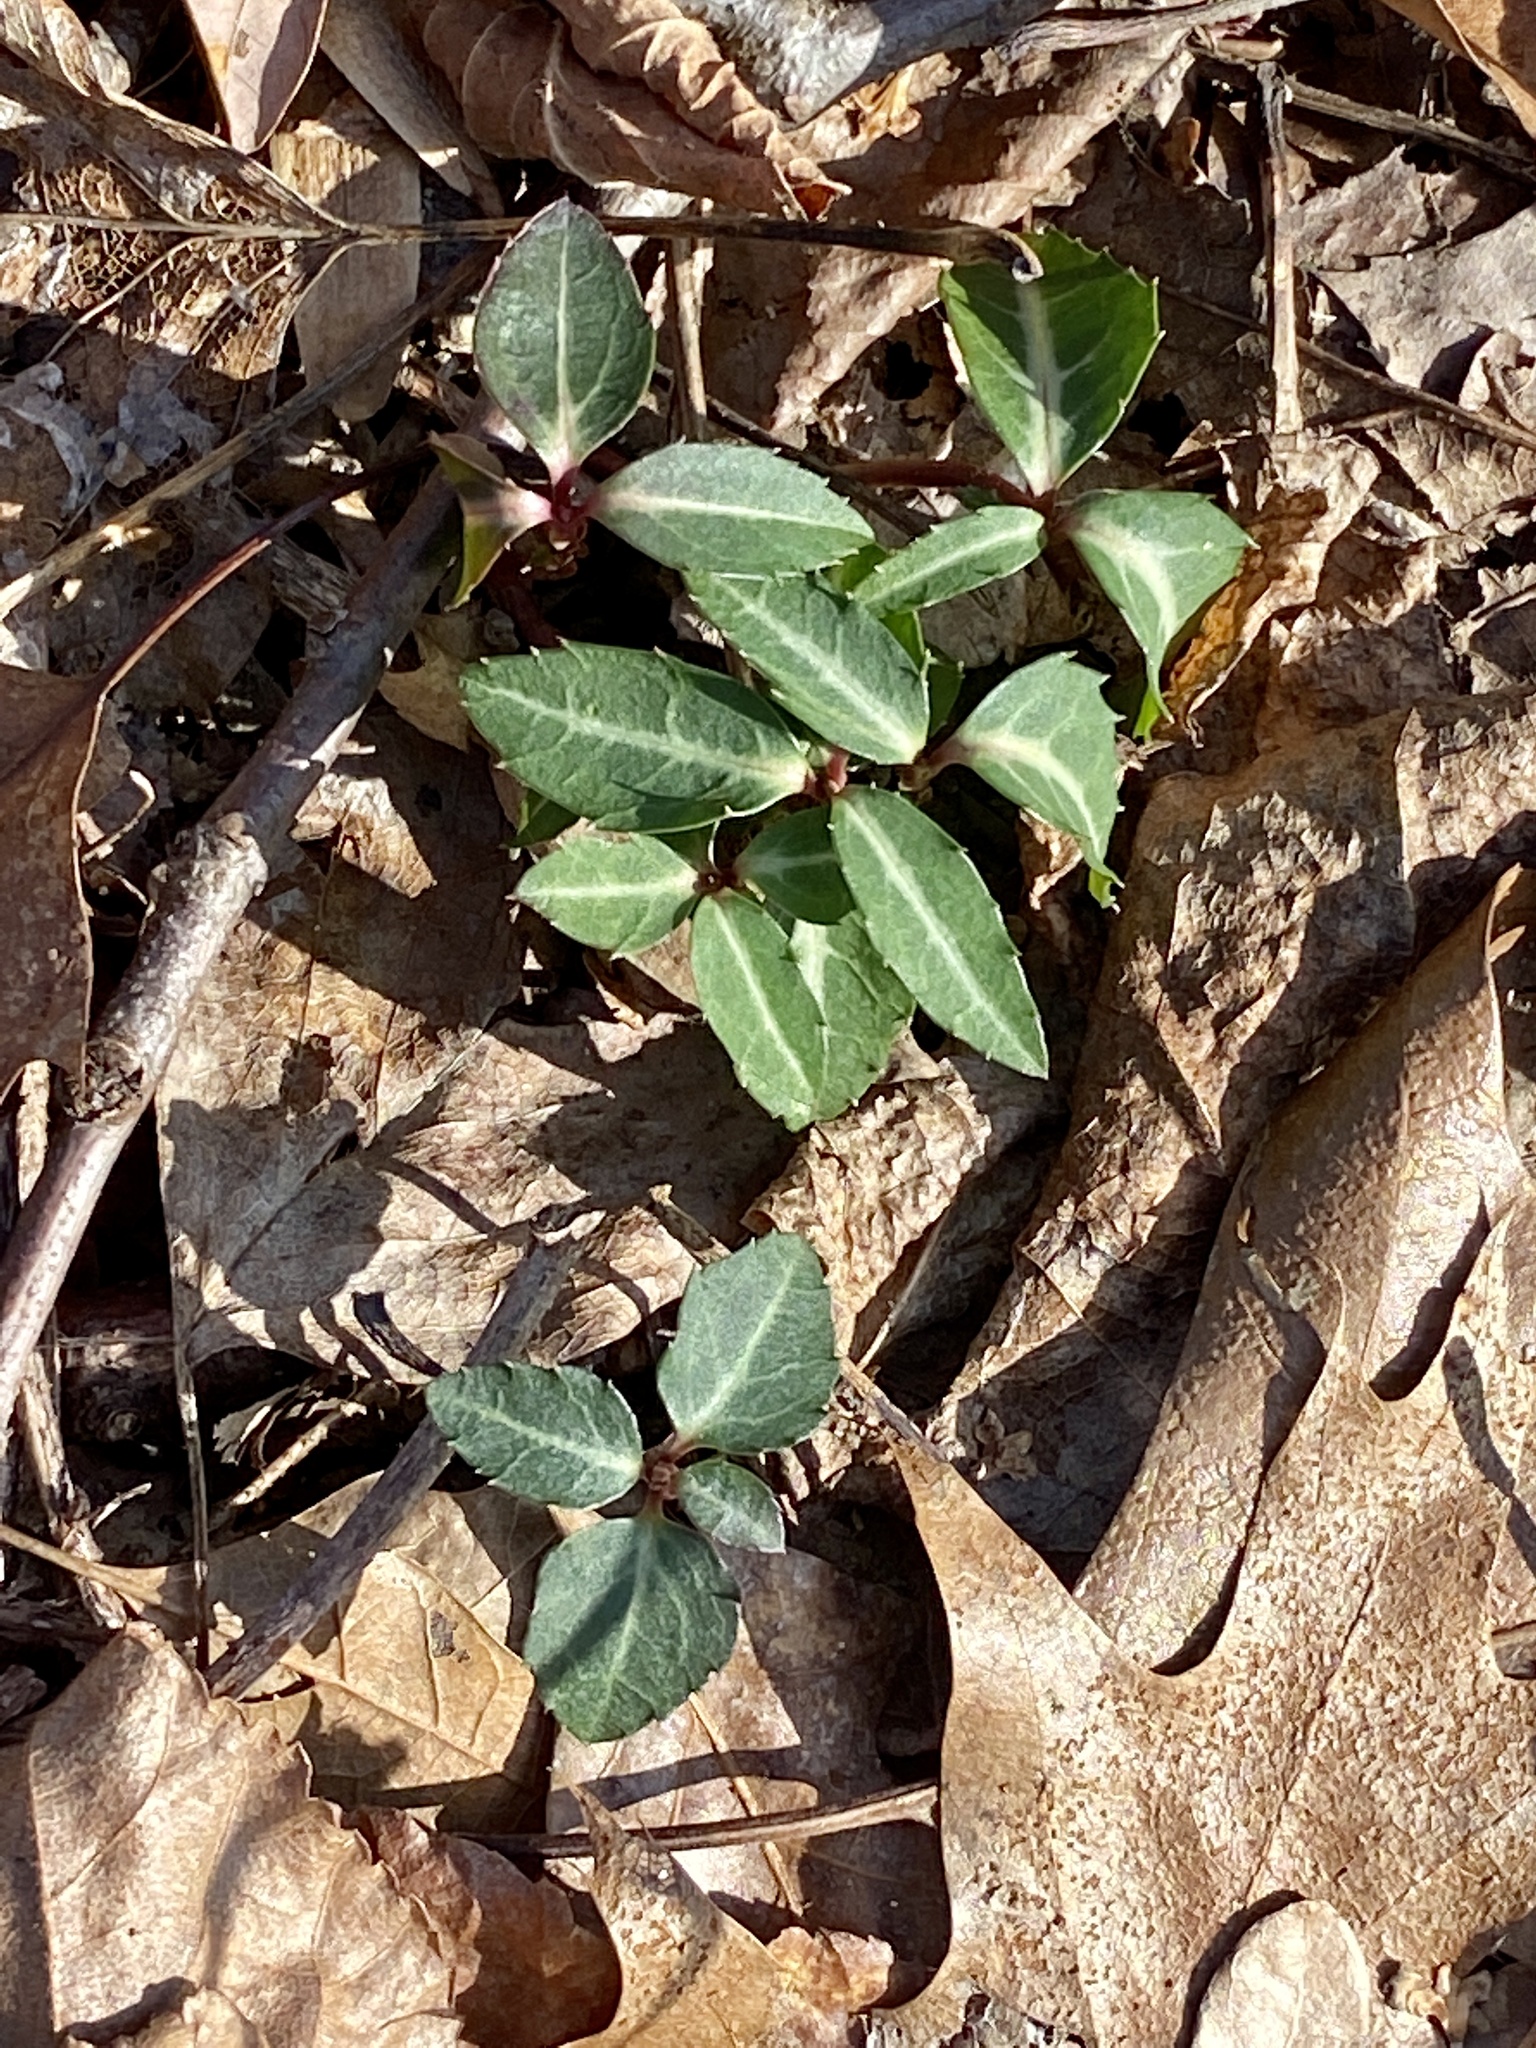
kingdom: Plantae
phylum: Tracheophyta
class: Magnoliopsida
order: Ericales
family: Ericaceae
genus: Chimaphila
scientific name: Chimaphila maculata
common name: Spotted pipsissewa
